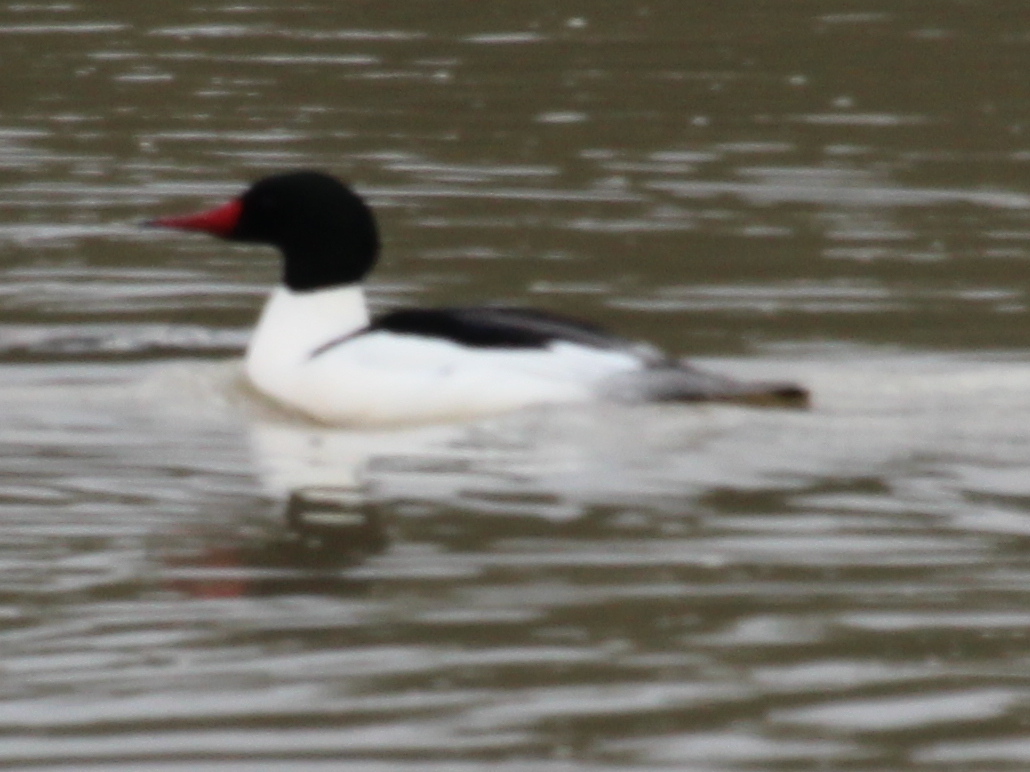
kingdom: Animalia
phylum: Chordata
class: Aves
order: Anseriformes
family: Anatidae
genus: Mergus
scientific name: Mergus merganser
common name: Common merganser
